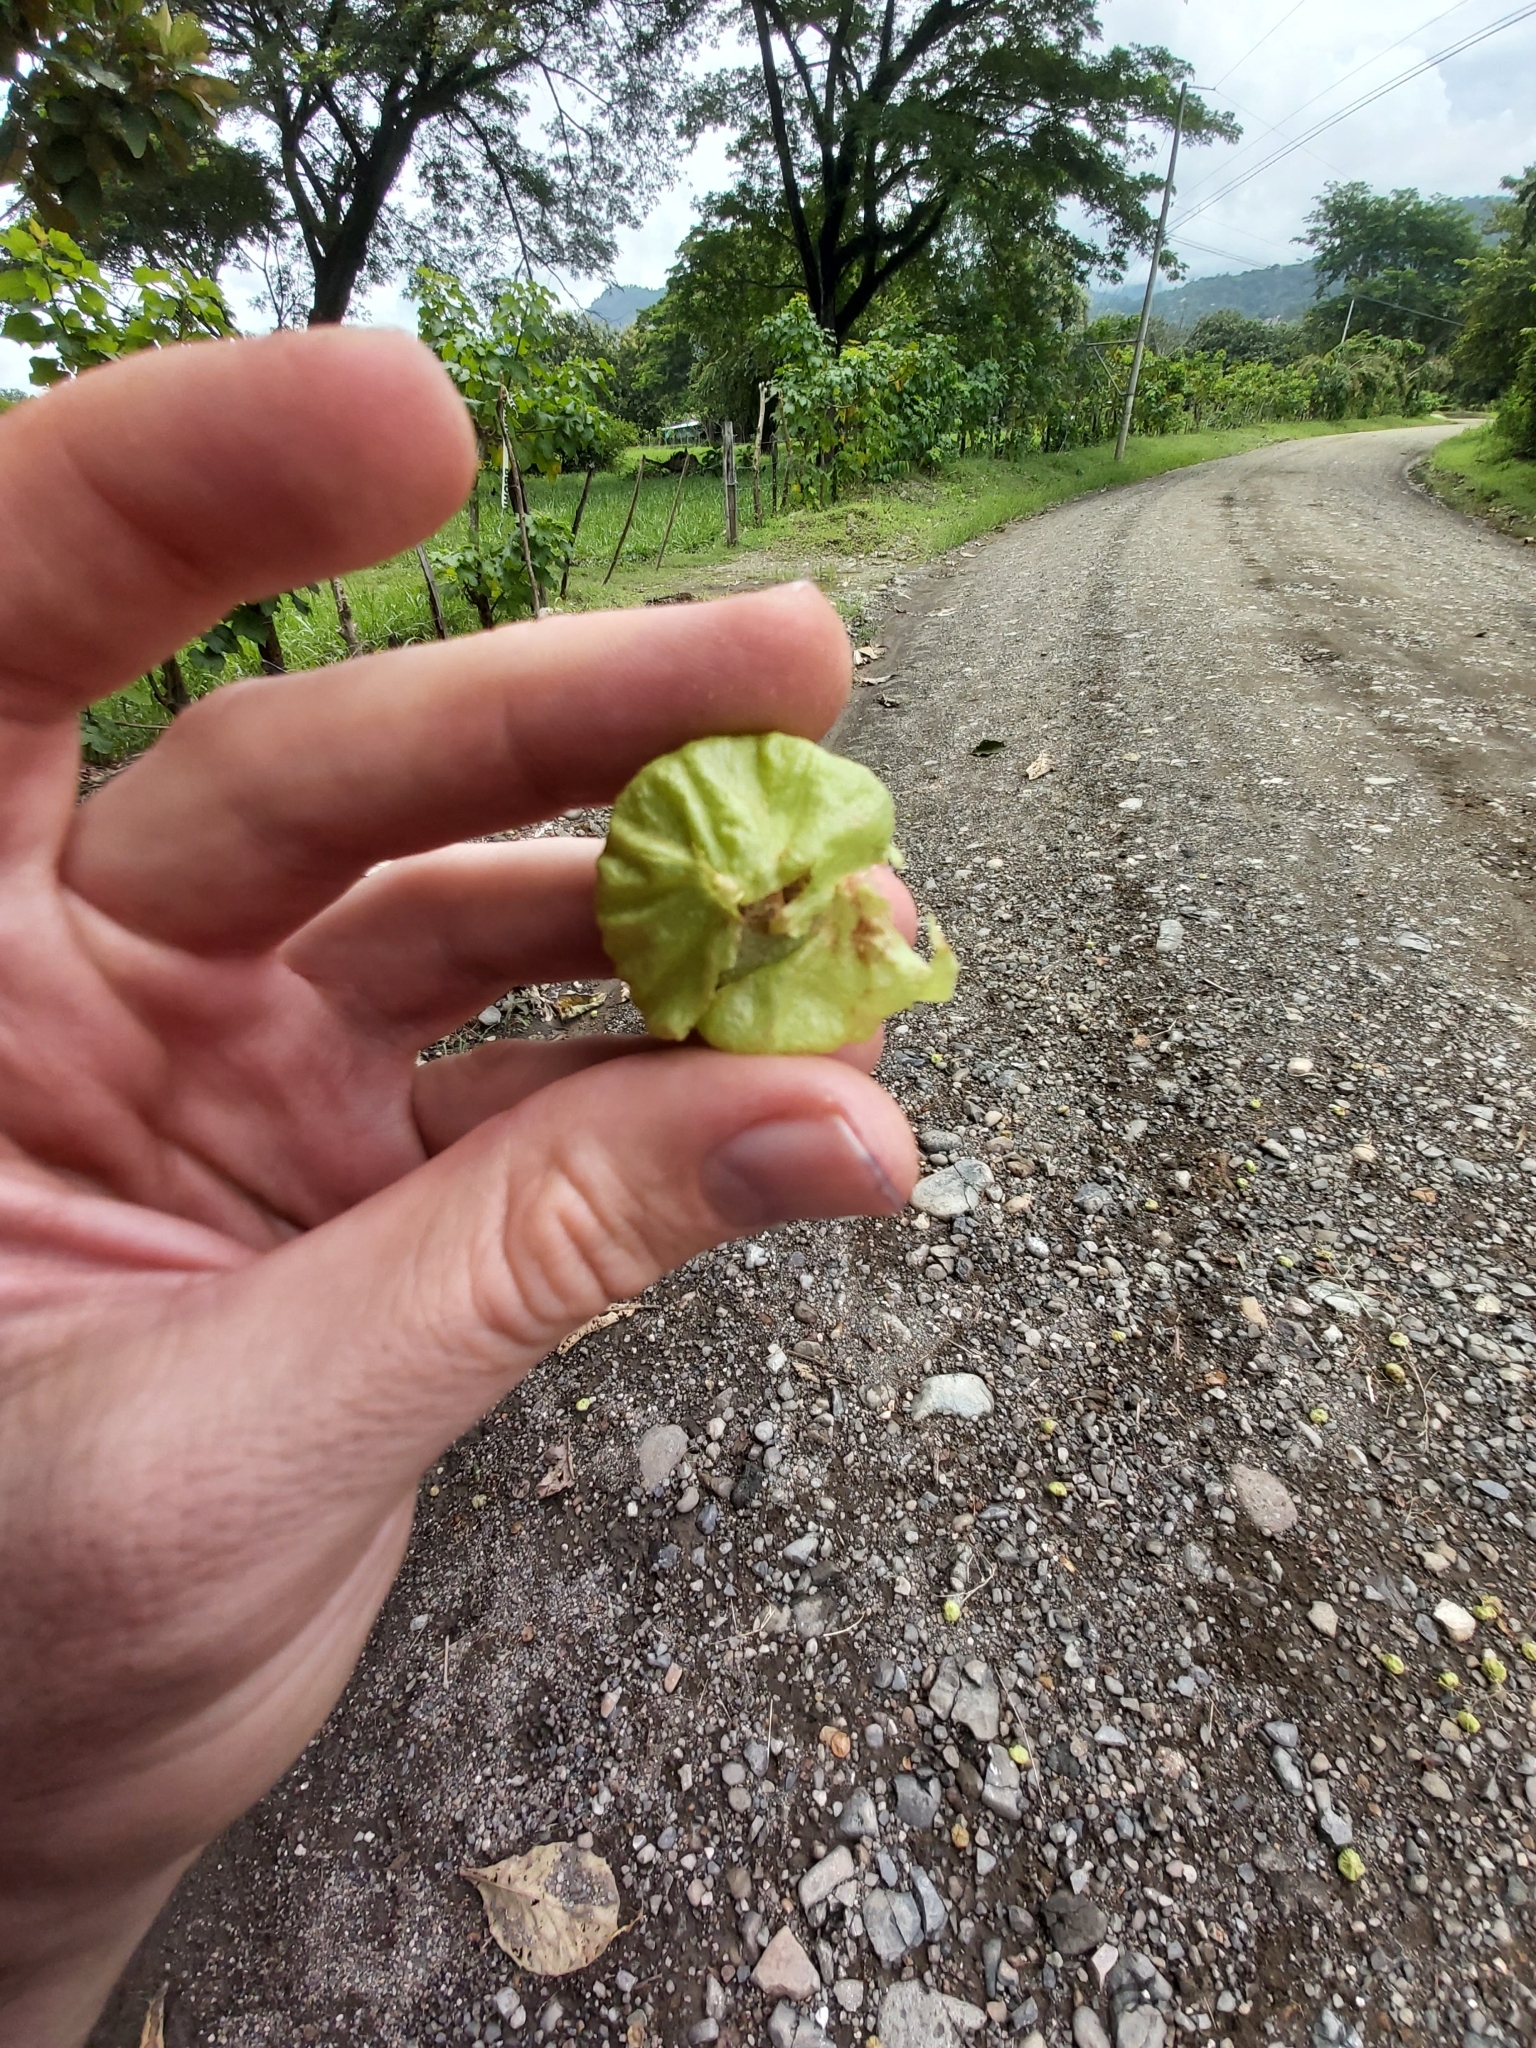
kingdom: Plantae
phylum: Tracheophyta
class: Magnoliopsida
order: Lamiales
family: Lamiaceae
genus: Tectona
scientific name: Tectona grandis
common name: Teak
